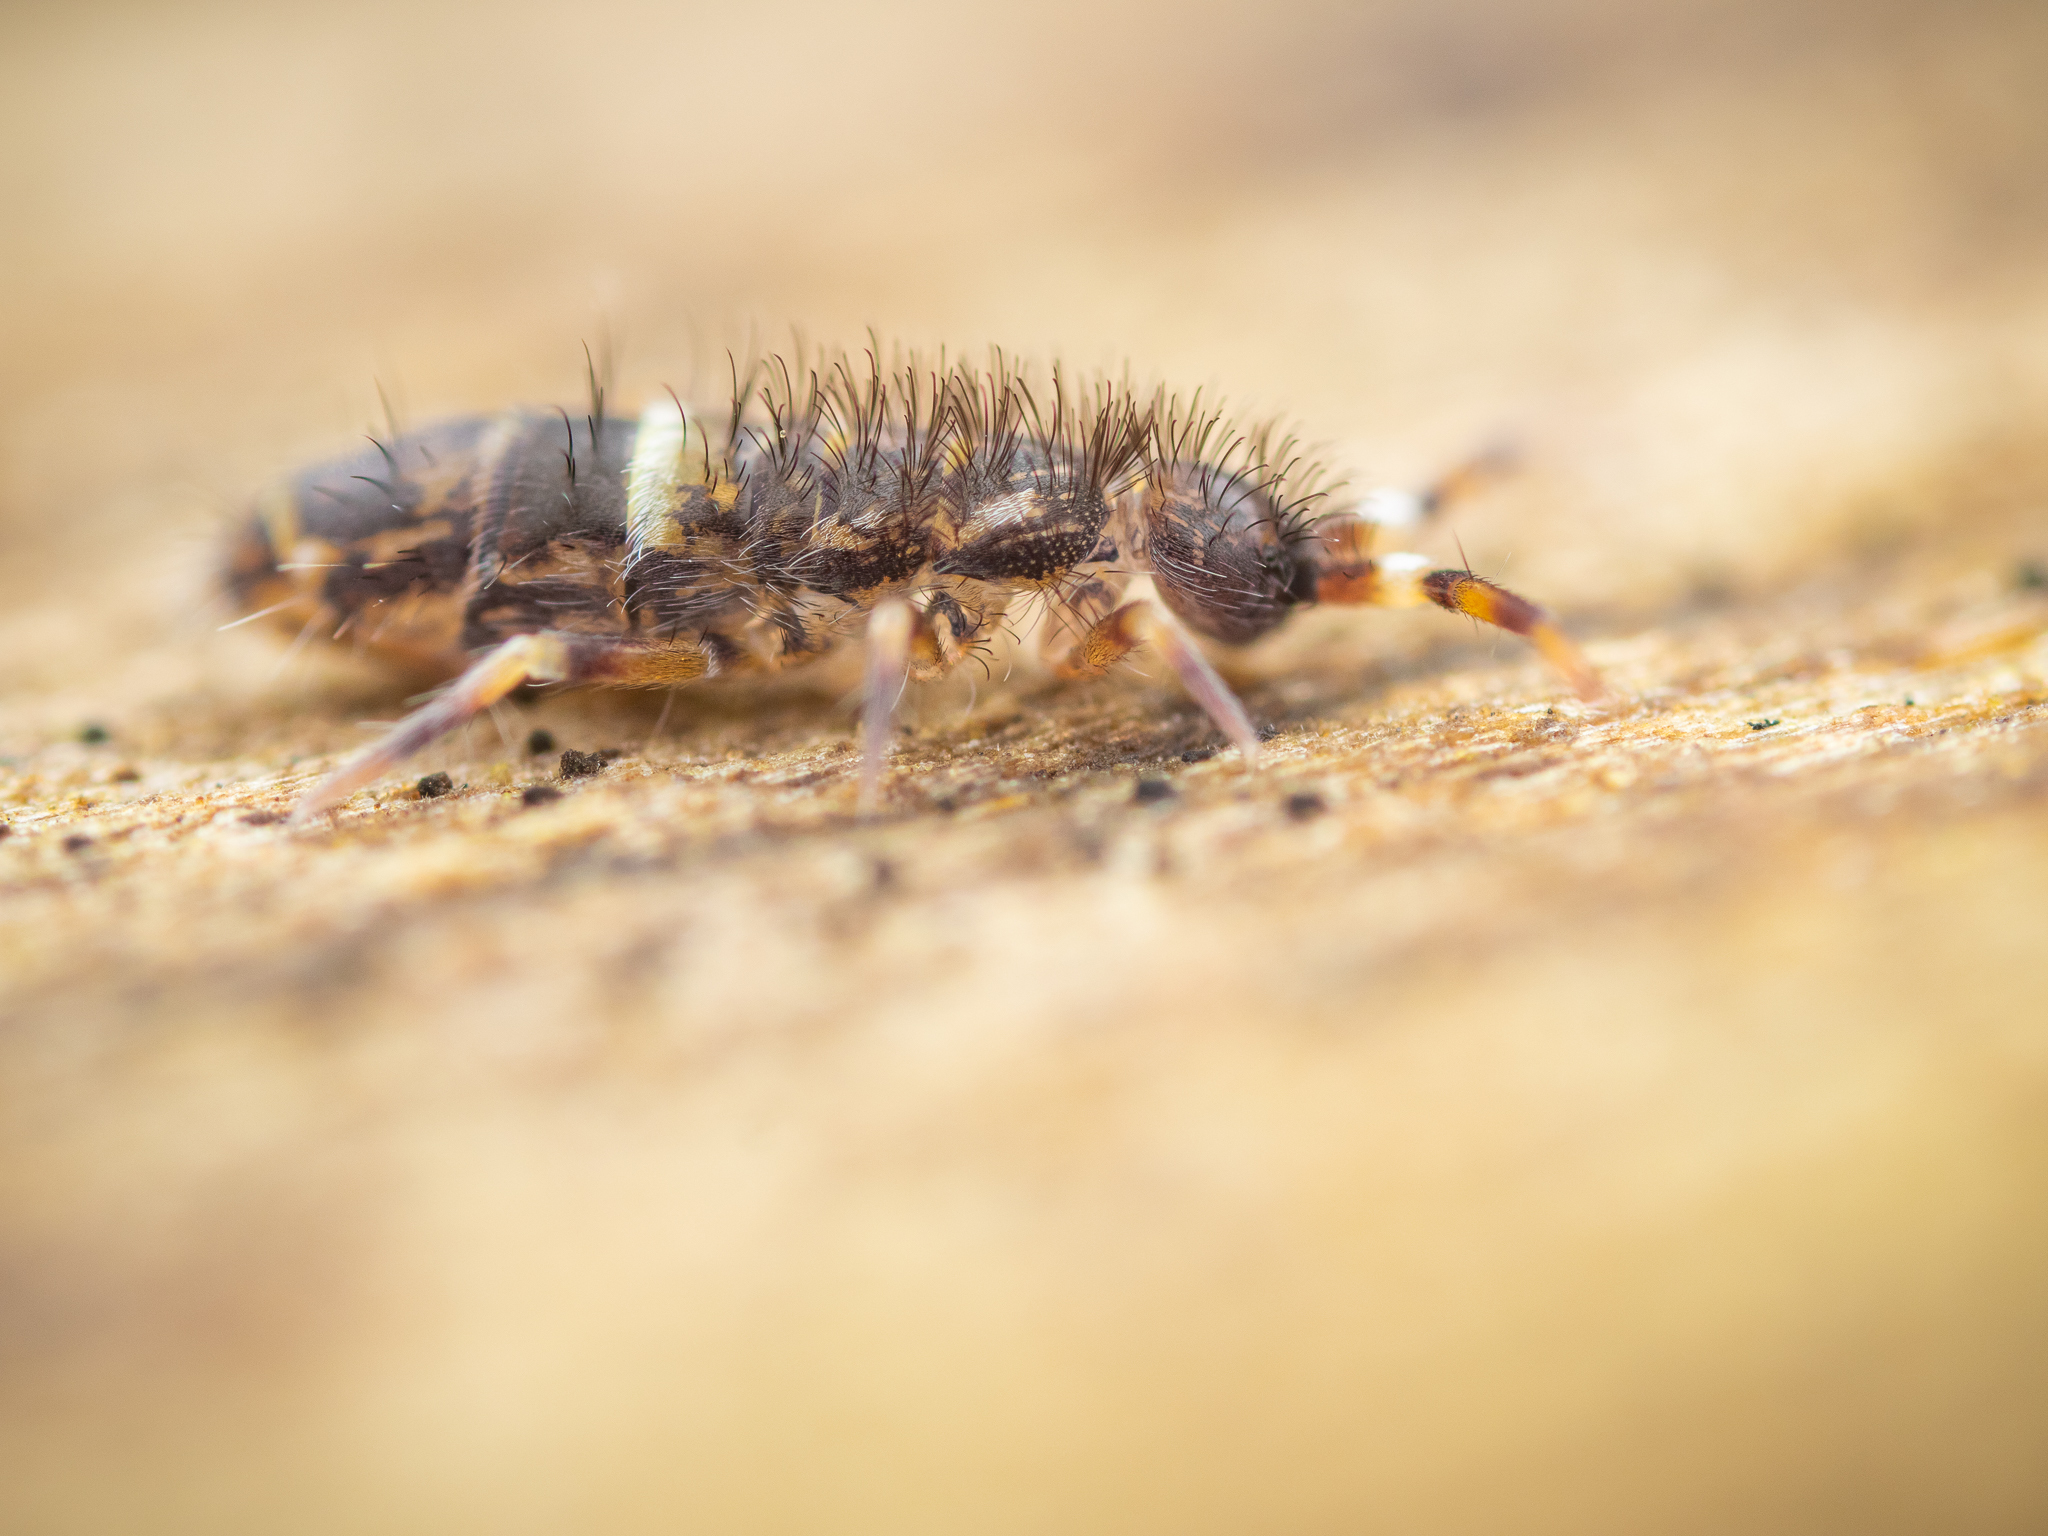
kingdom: Animalia
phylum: Arthropoda
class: Collembola
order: Entomobryomorpha
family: Orchesellidae
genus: Orchesella
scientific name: Orchesella cincta
